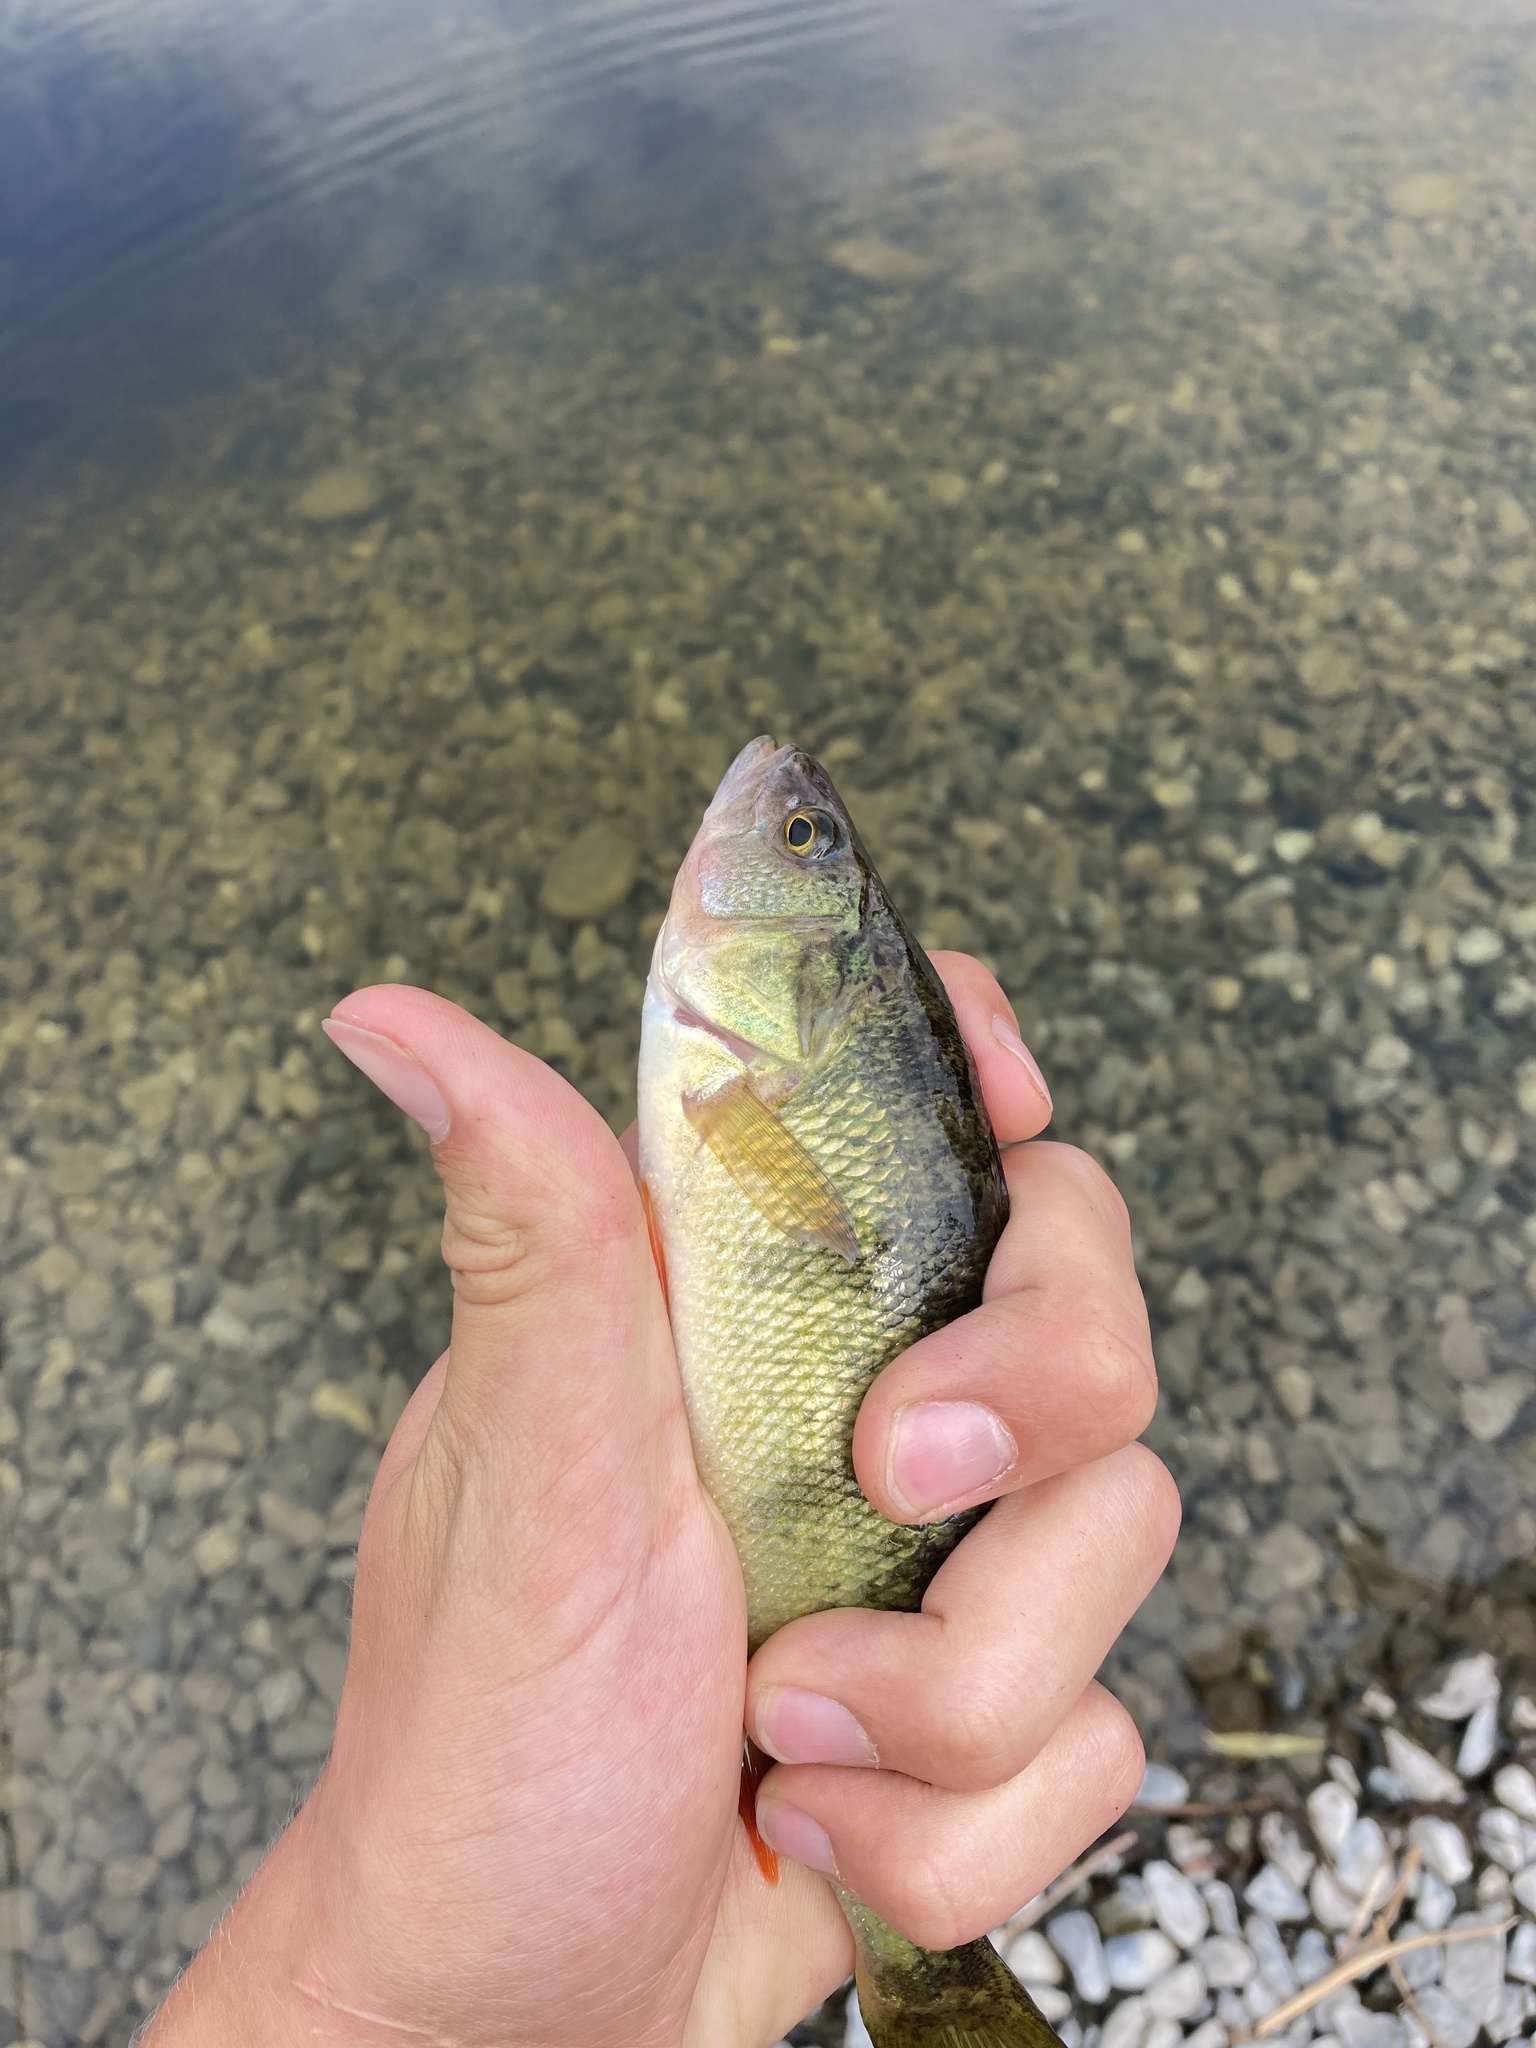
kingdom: Animalia
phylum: Chordata
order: Perciformes
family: Percidae
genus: Perca
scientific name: Perca flavescens
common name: Yellow perch
